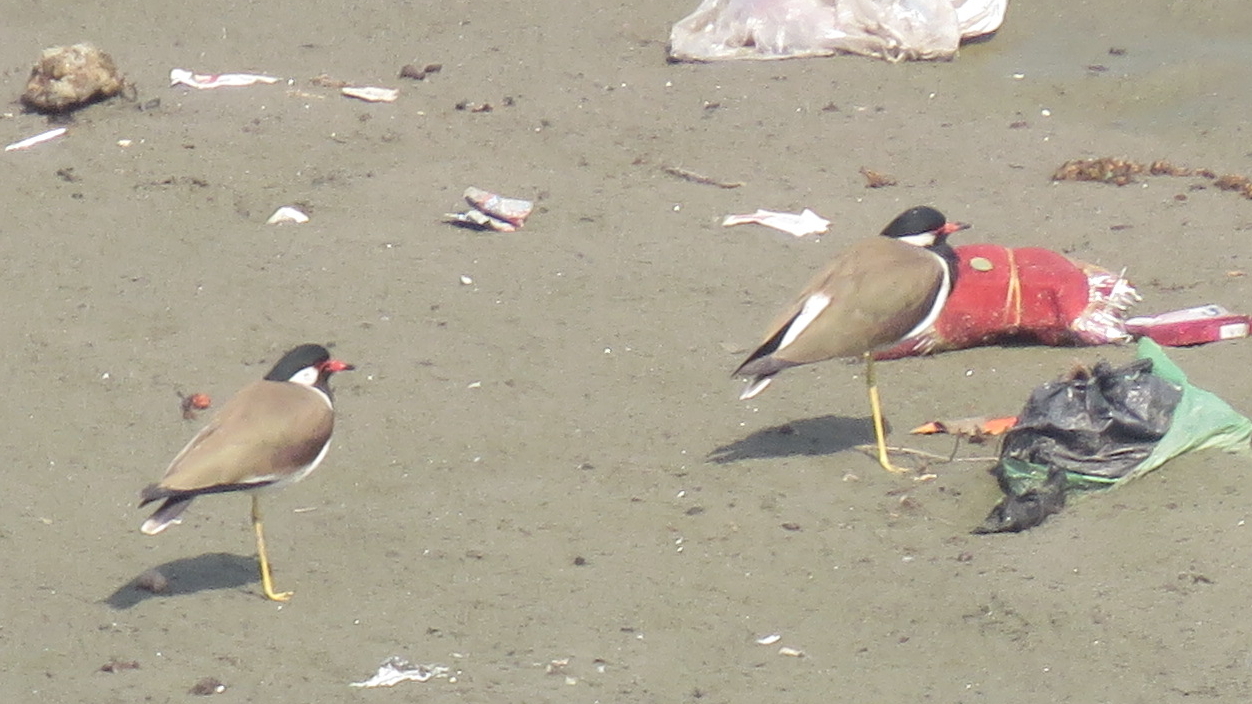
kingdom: Animalia
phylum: Chordata
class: Aves
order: Charadriiformes
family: Charadriidae
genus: Vanellus
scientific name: Vanellus indicus
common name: Red-wattled lapwing
